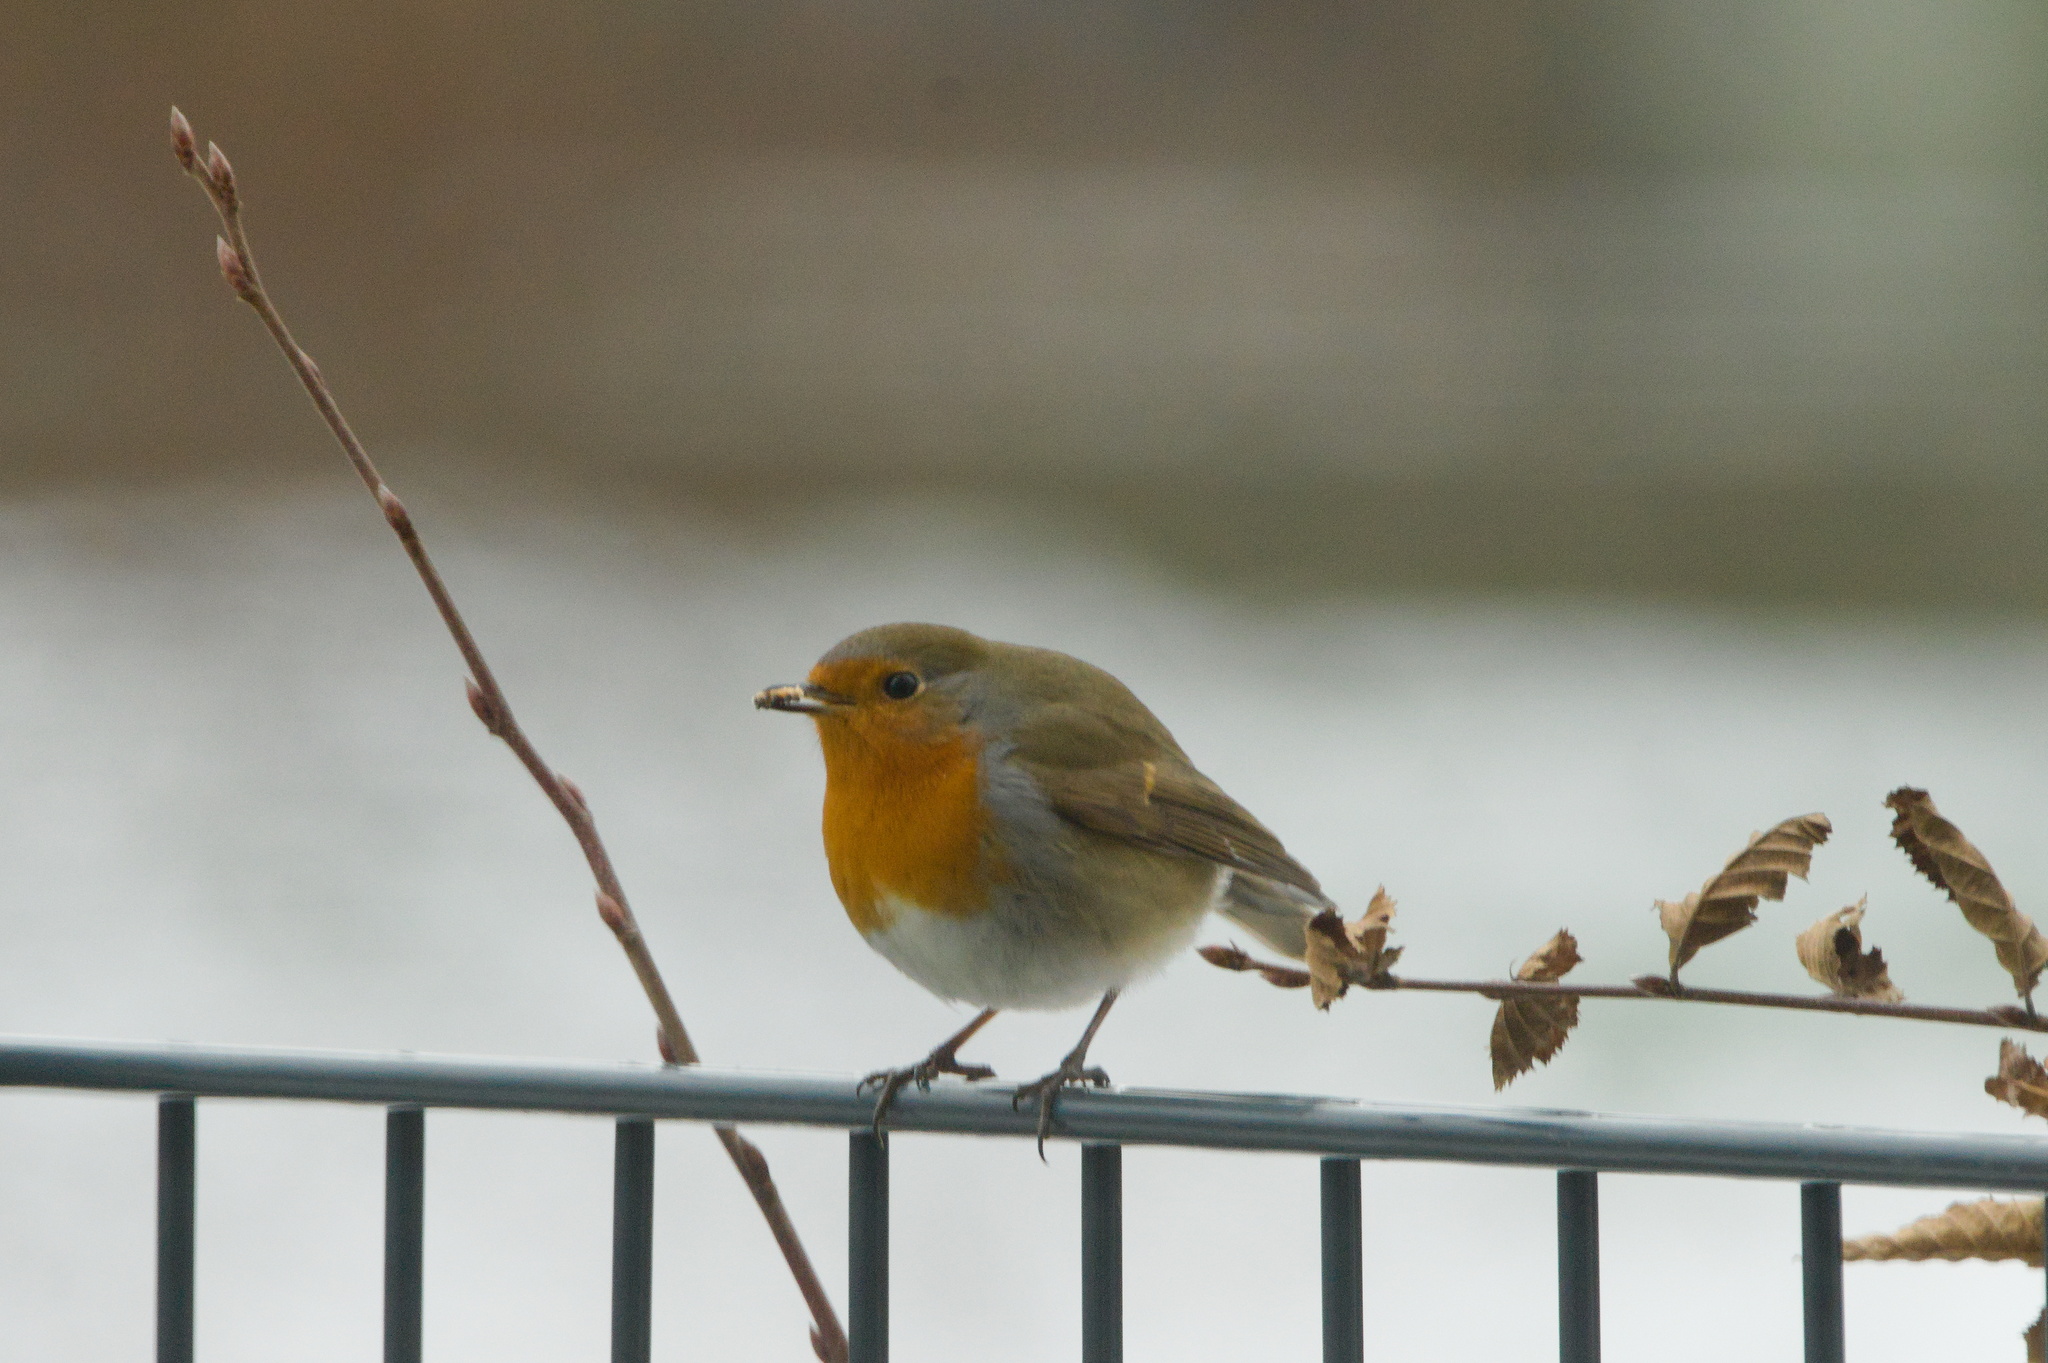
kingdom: Animalia
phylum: Chordata
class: Aves
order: Passeriformes
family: Muscicapidae
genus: Erithacus
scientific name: Erithacus rubecula
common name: European robin
